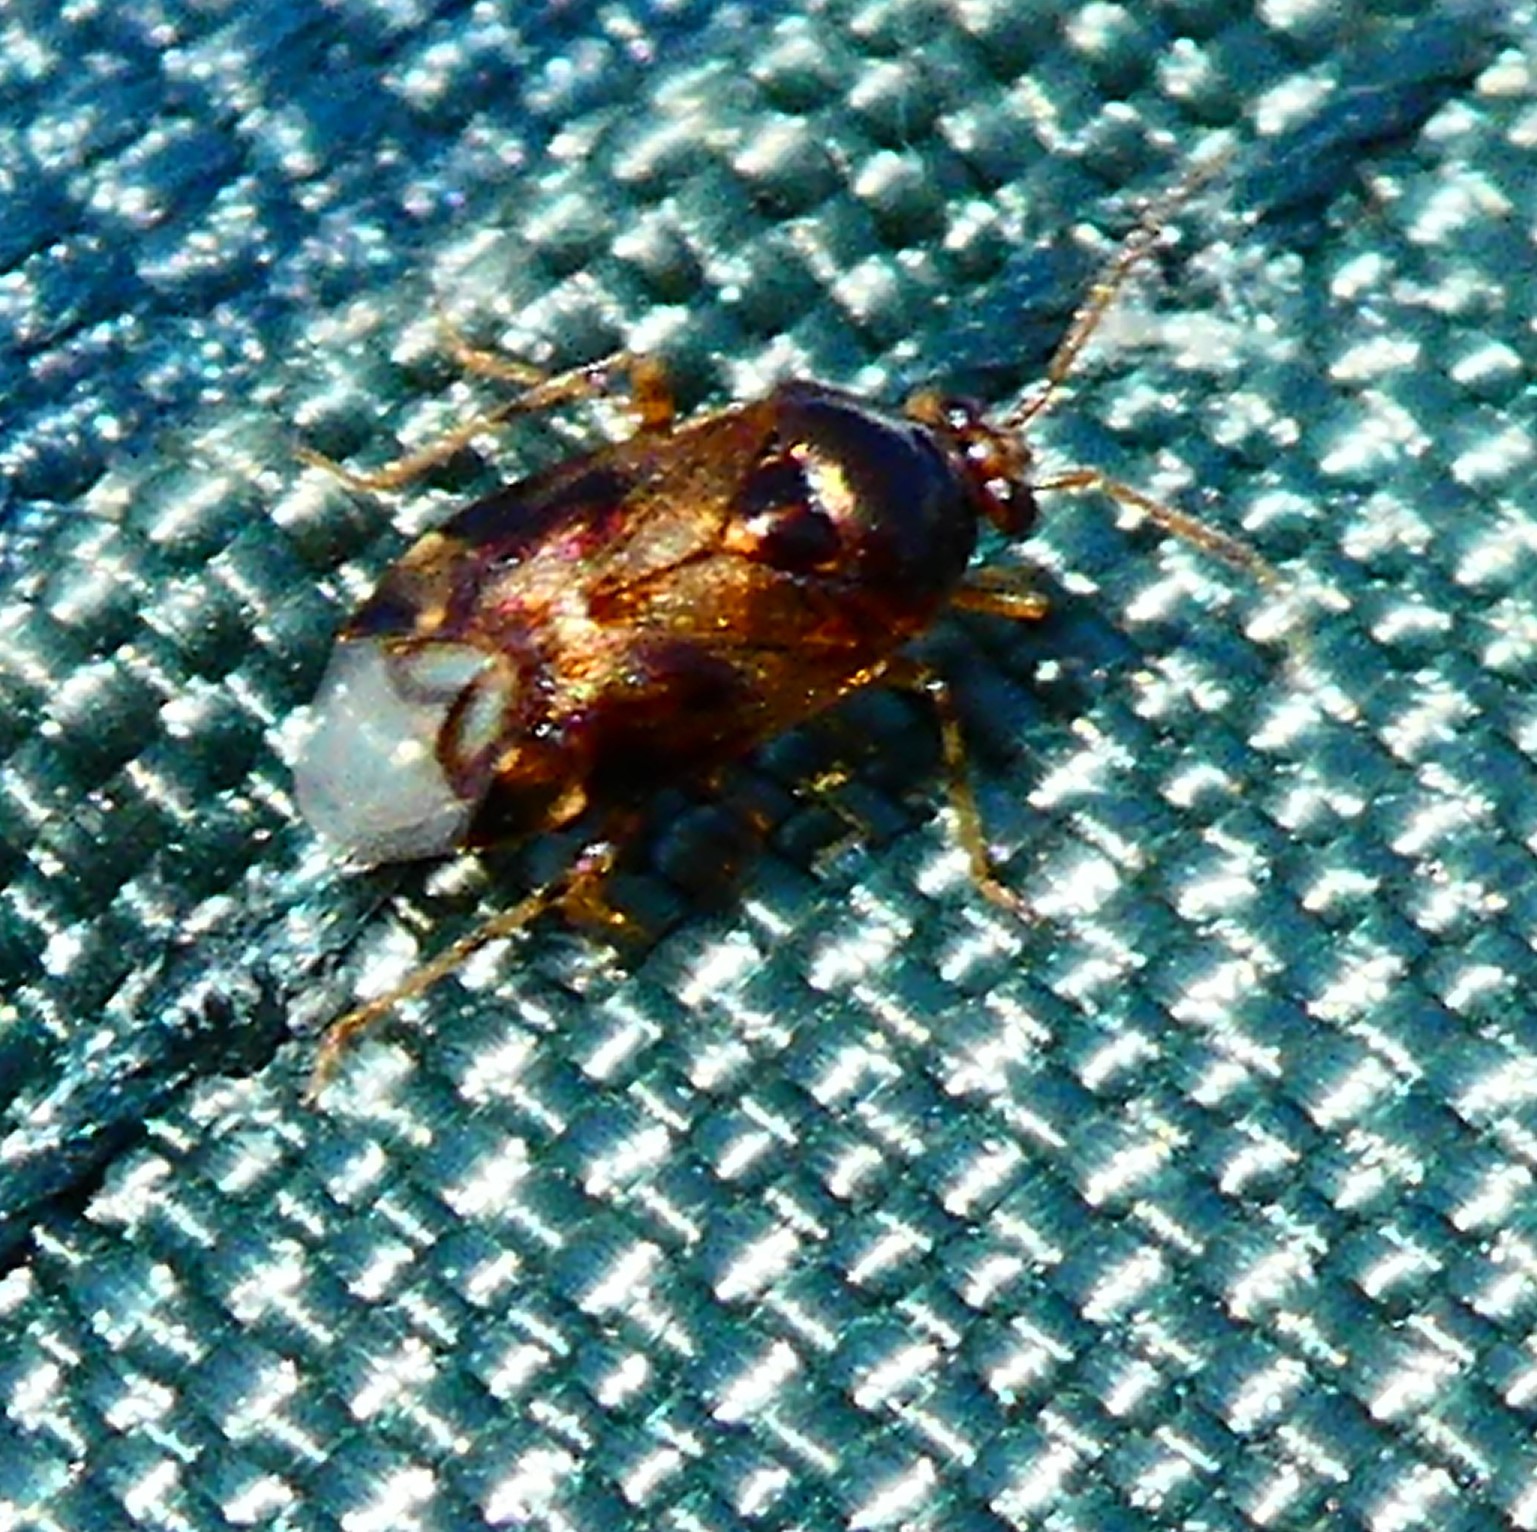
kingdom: Animalia
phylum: Arthropoda
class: Insecta
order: Hemiptera
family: Miridae
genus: Deraeocoris
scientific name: Deraeocoris lutescens
